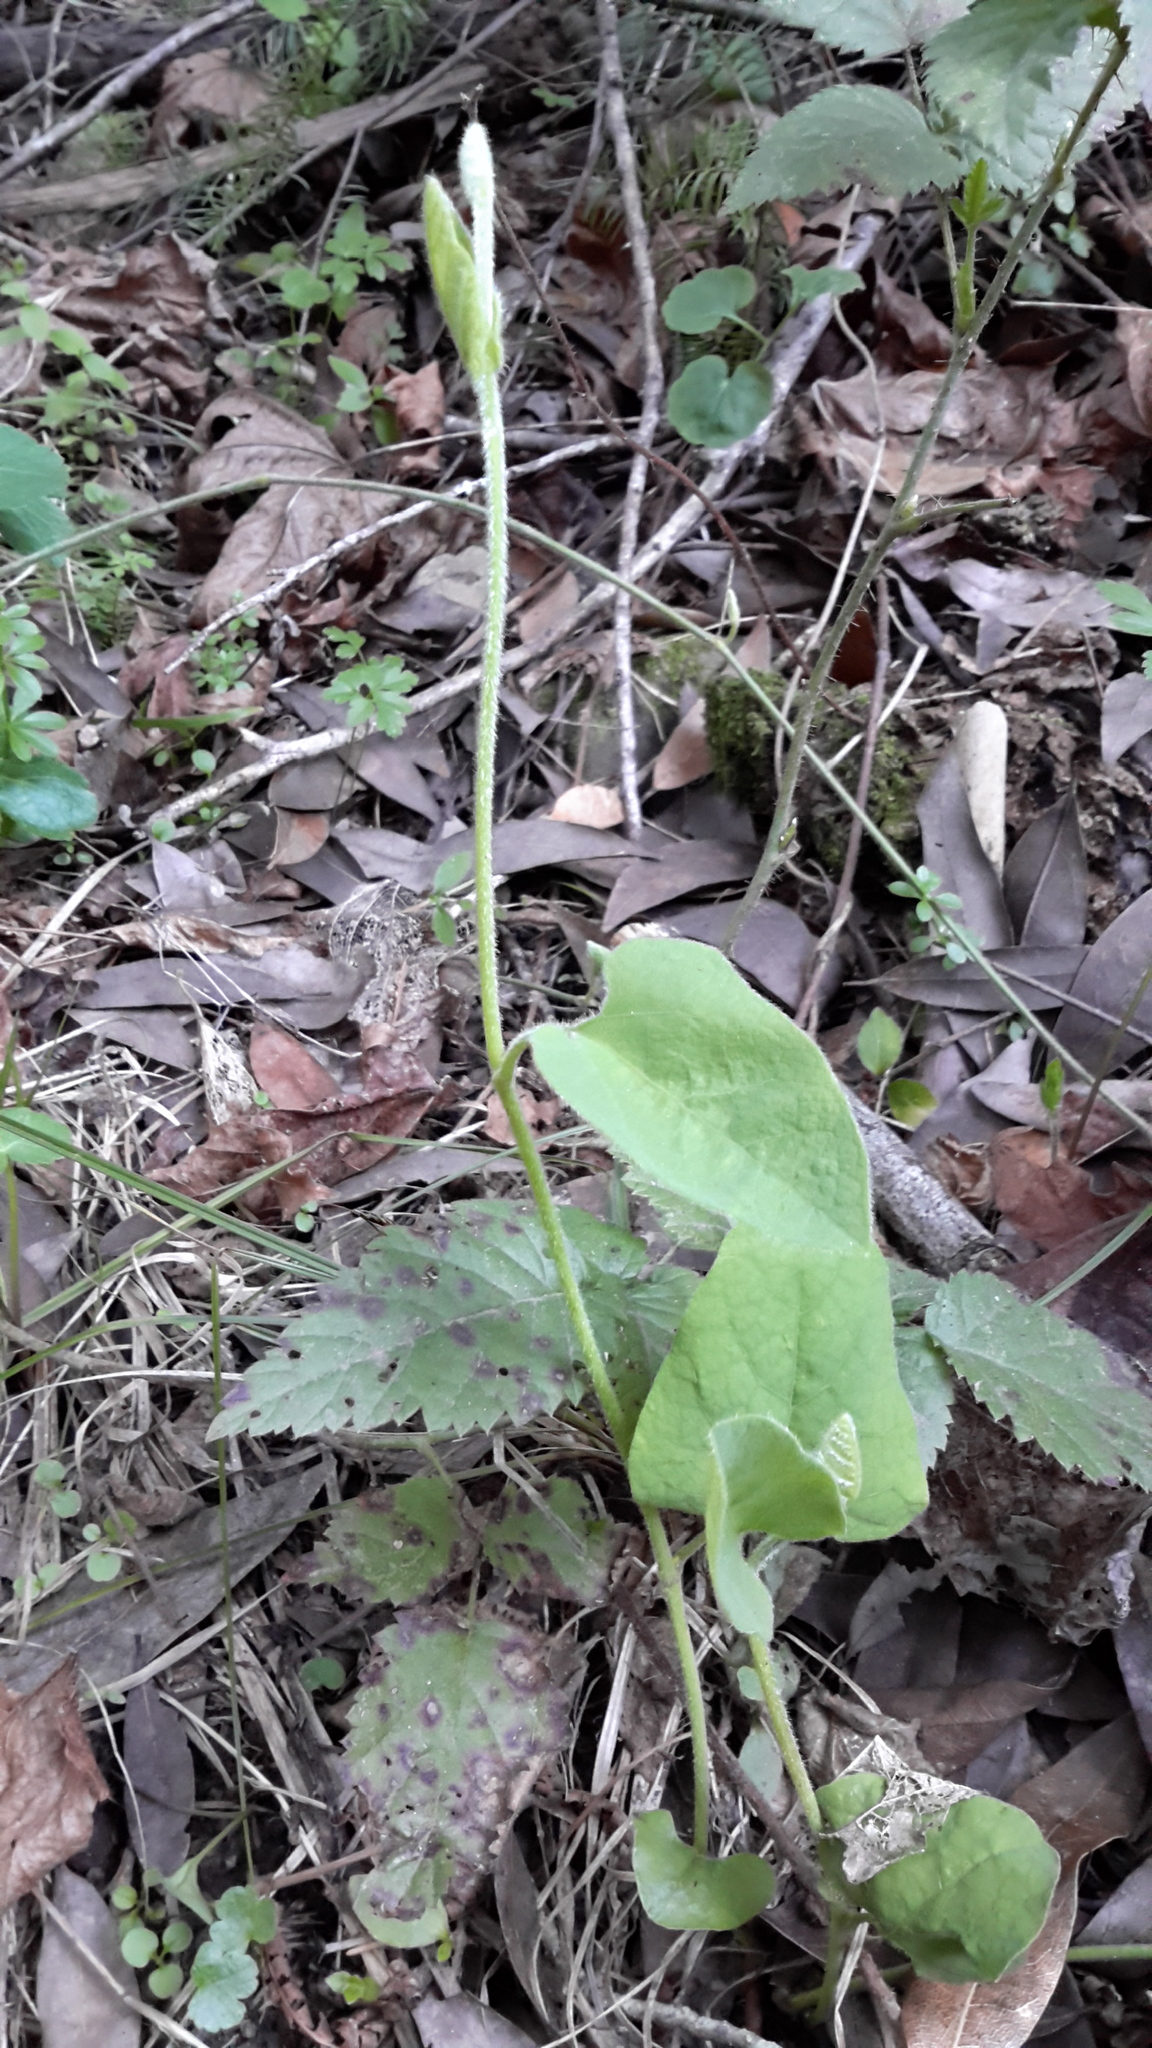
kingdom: Plantae
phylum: Tracheophyta
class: Magnoliopsida
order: Piperales
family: Aristolochiaceae
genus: Isotrema
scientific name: Isotrema californicum
